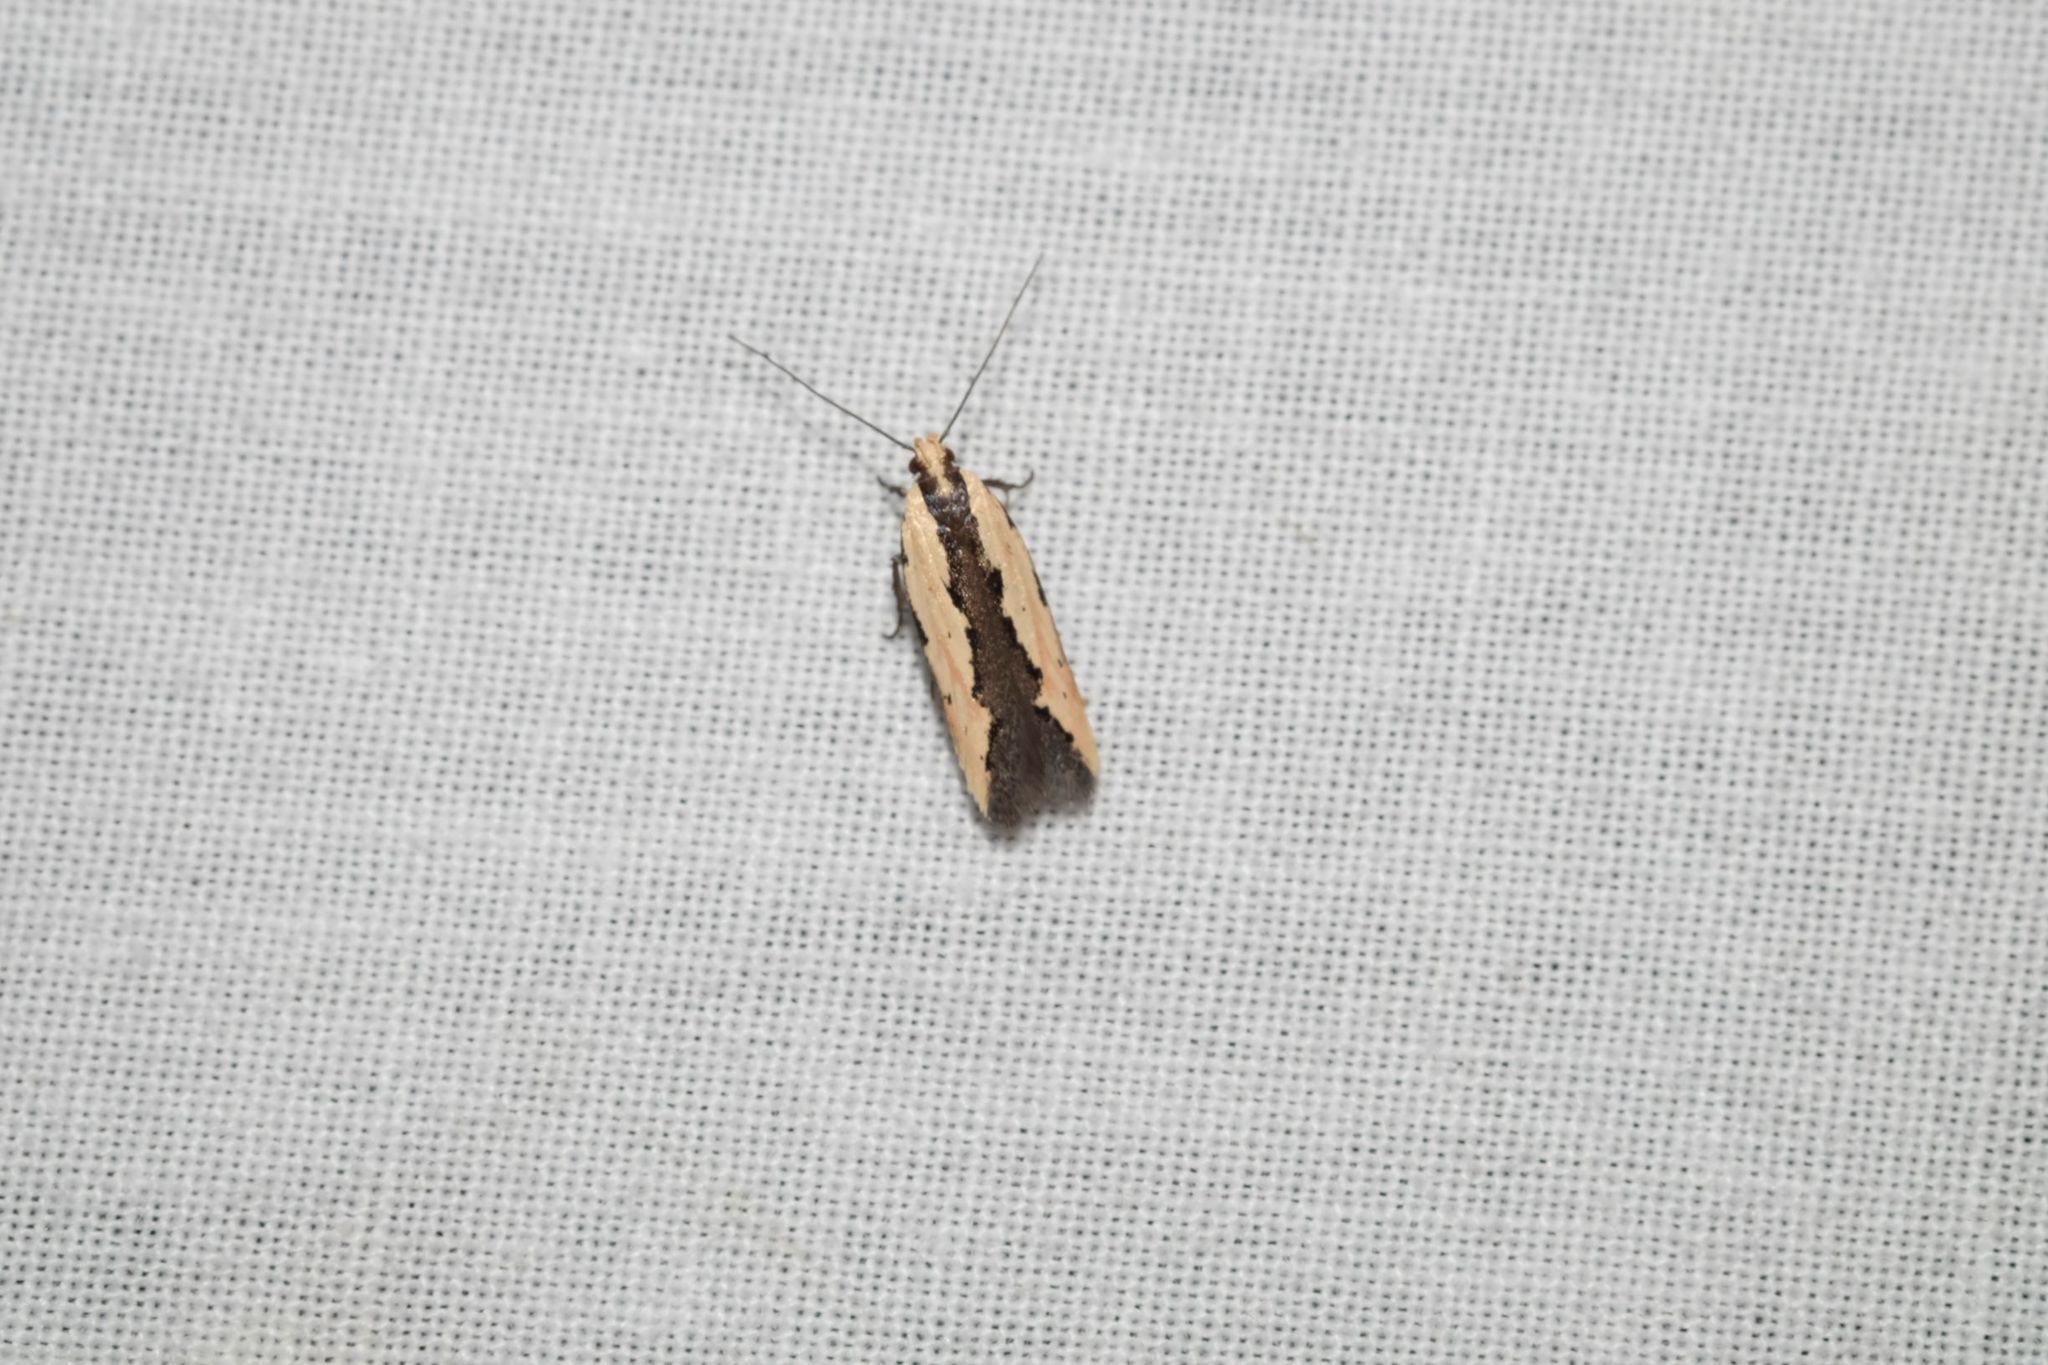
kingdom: Animalia
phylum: Arthropoda
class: Insecta
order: Lepidoptera
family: Gelechiidae
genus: Ardozyga
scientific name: Ardozyga mesochra
